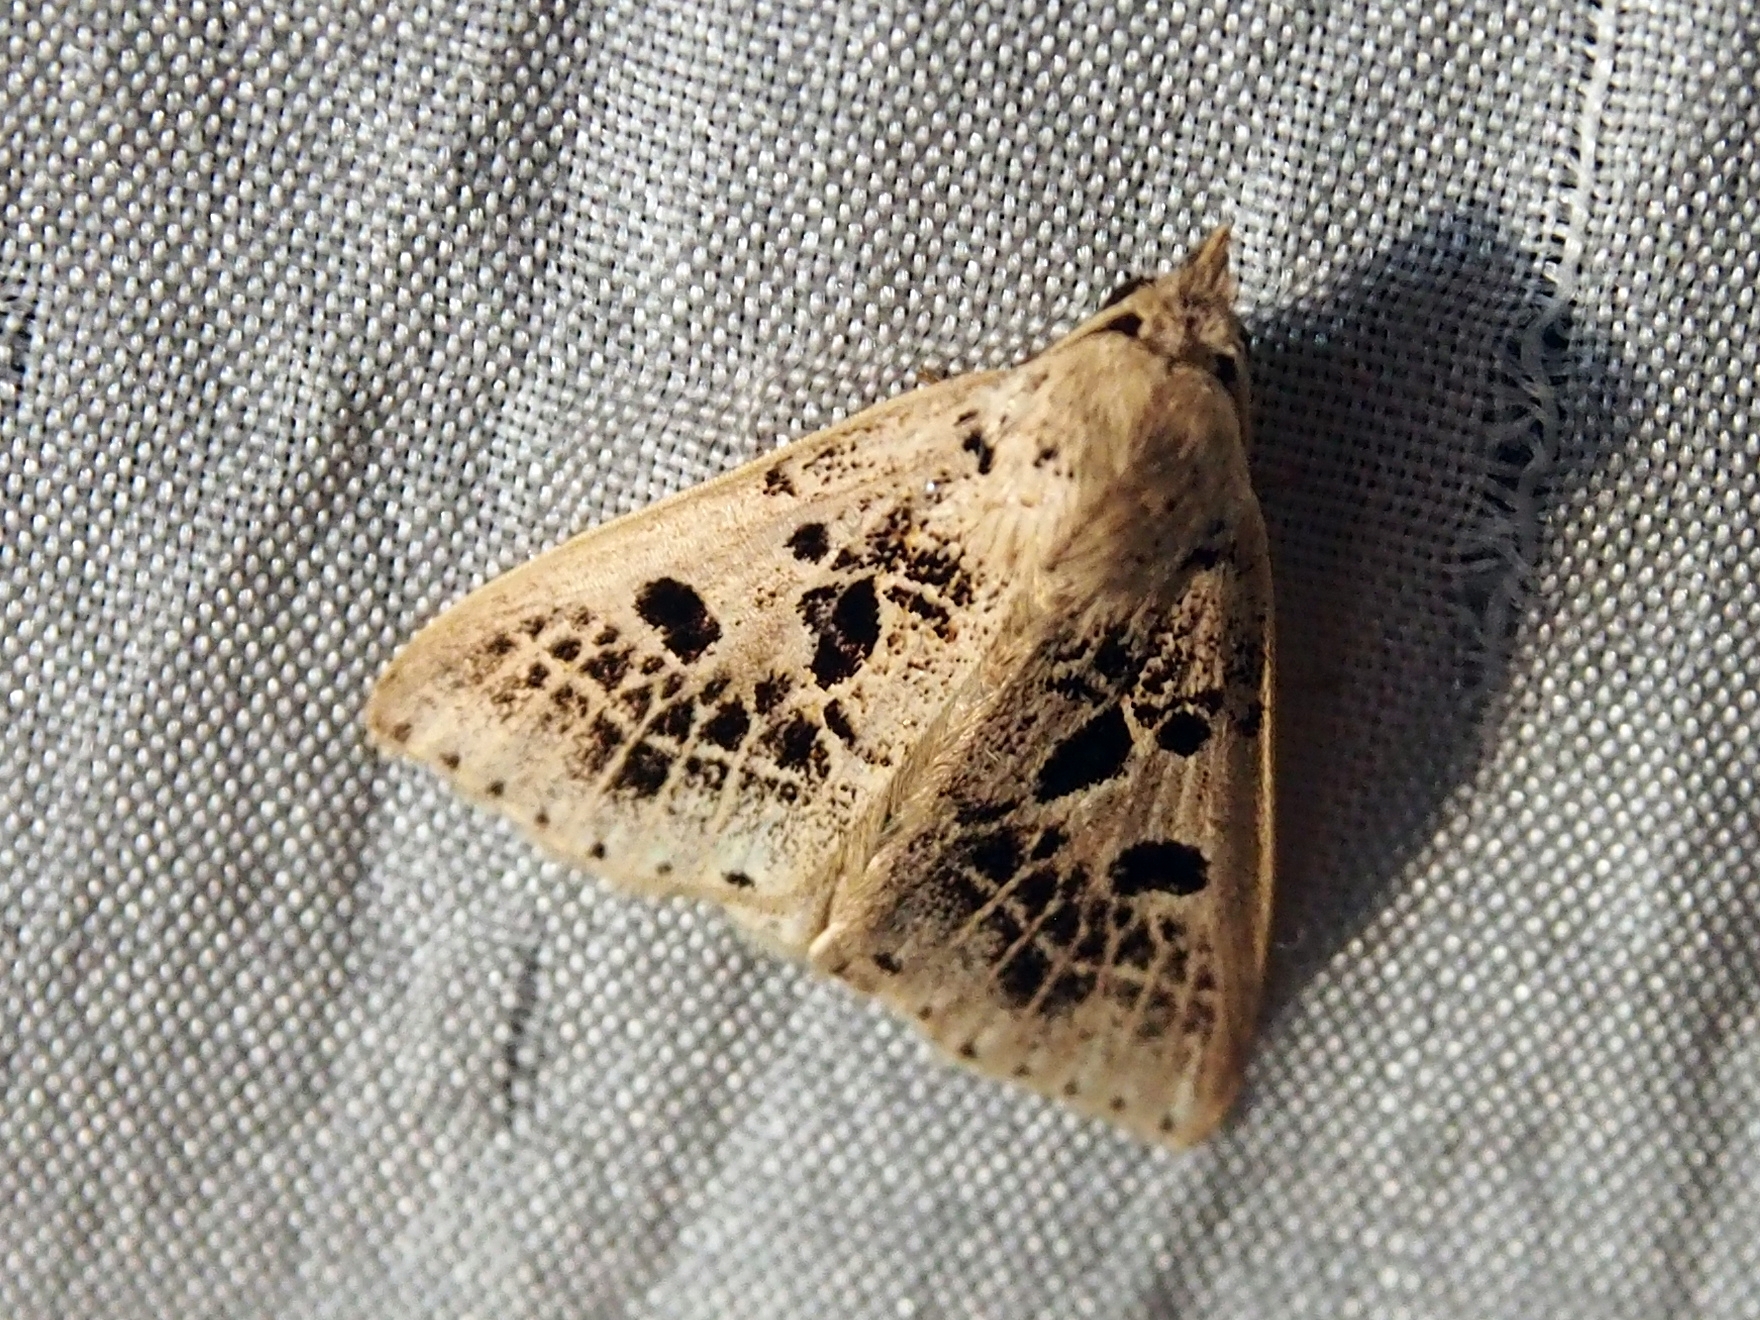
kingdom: Animalia
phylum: Arthropoda
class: Insecta
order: Lepidoptera
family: Erebidae
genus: Scolecocampa
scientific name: Scolecocampa Herminodes atrosignata
